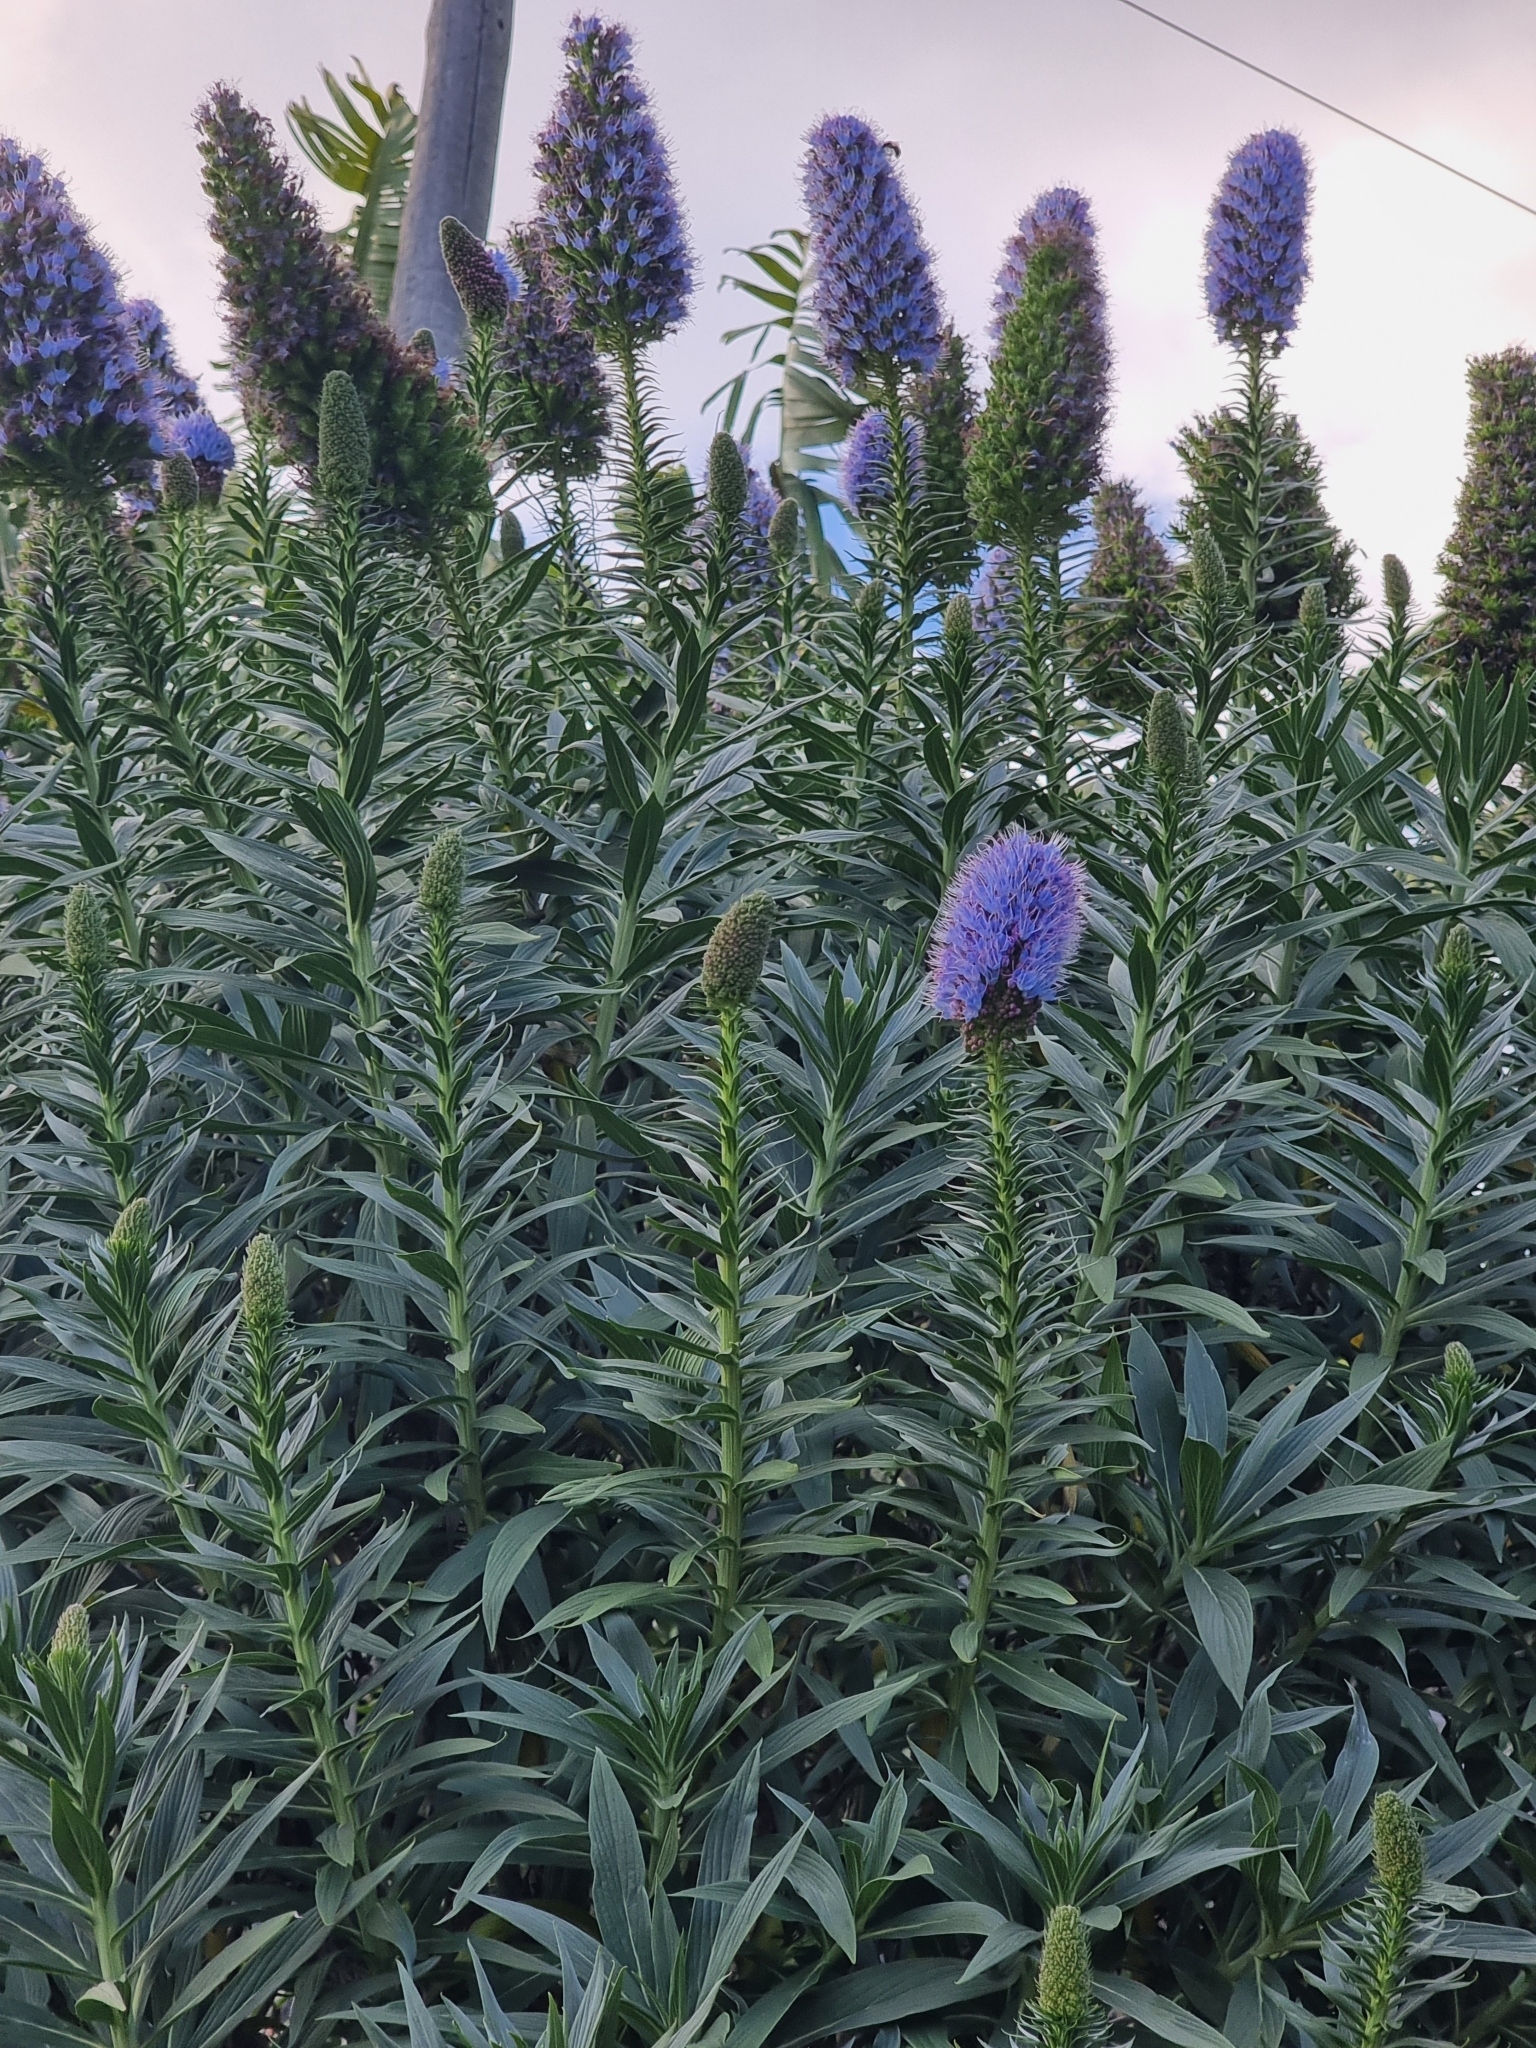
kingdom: Plantae
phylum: Tracheophyta
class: Magnoliopsida
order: Boraginales
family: Boraginaceae
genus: Echium
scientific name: Echium nervosum
